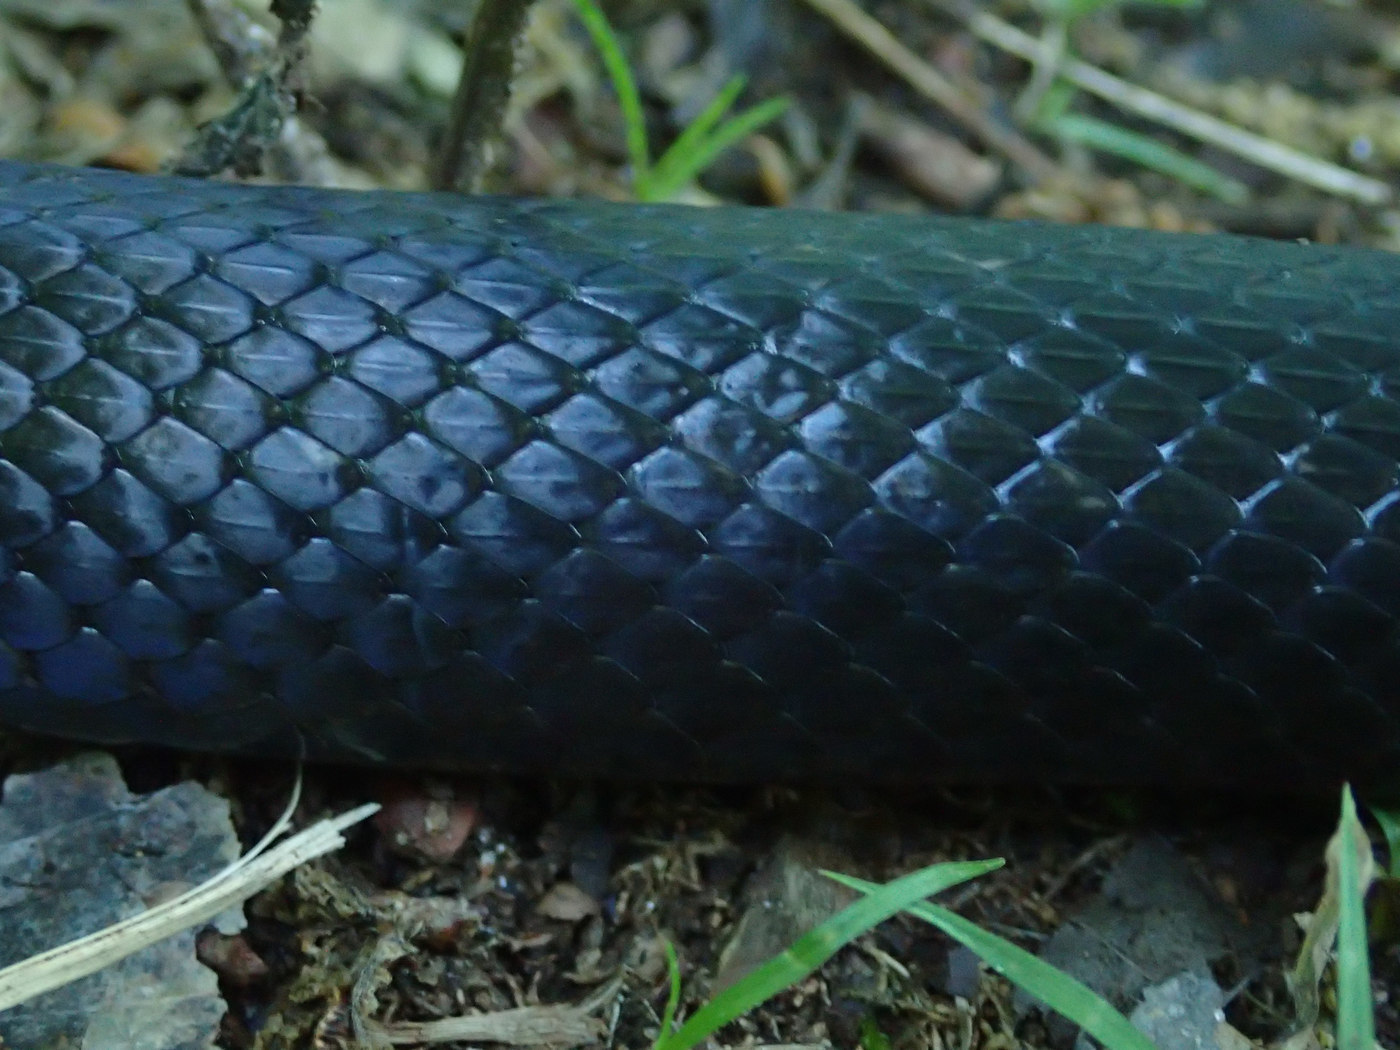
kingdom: Animalia
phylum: Chordata
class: Squamata
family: Colubridae
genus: Pantherophis
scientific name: Pantherophis alleghaniensis
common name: Eastern rat snake
